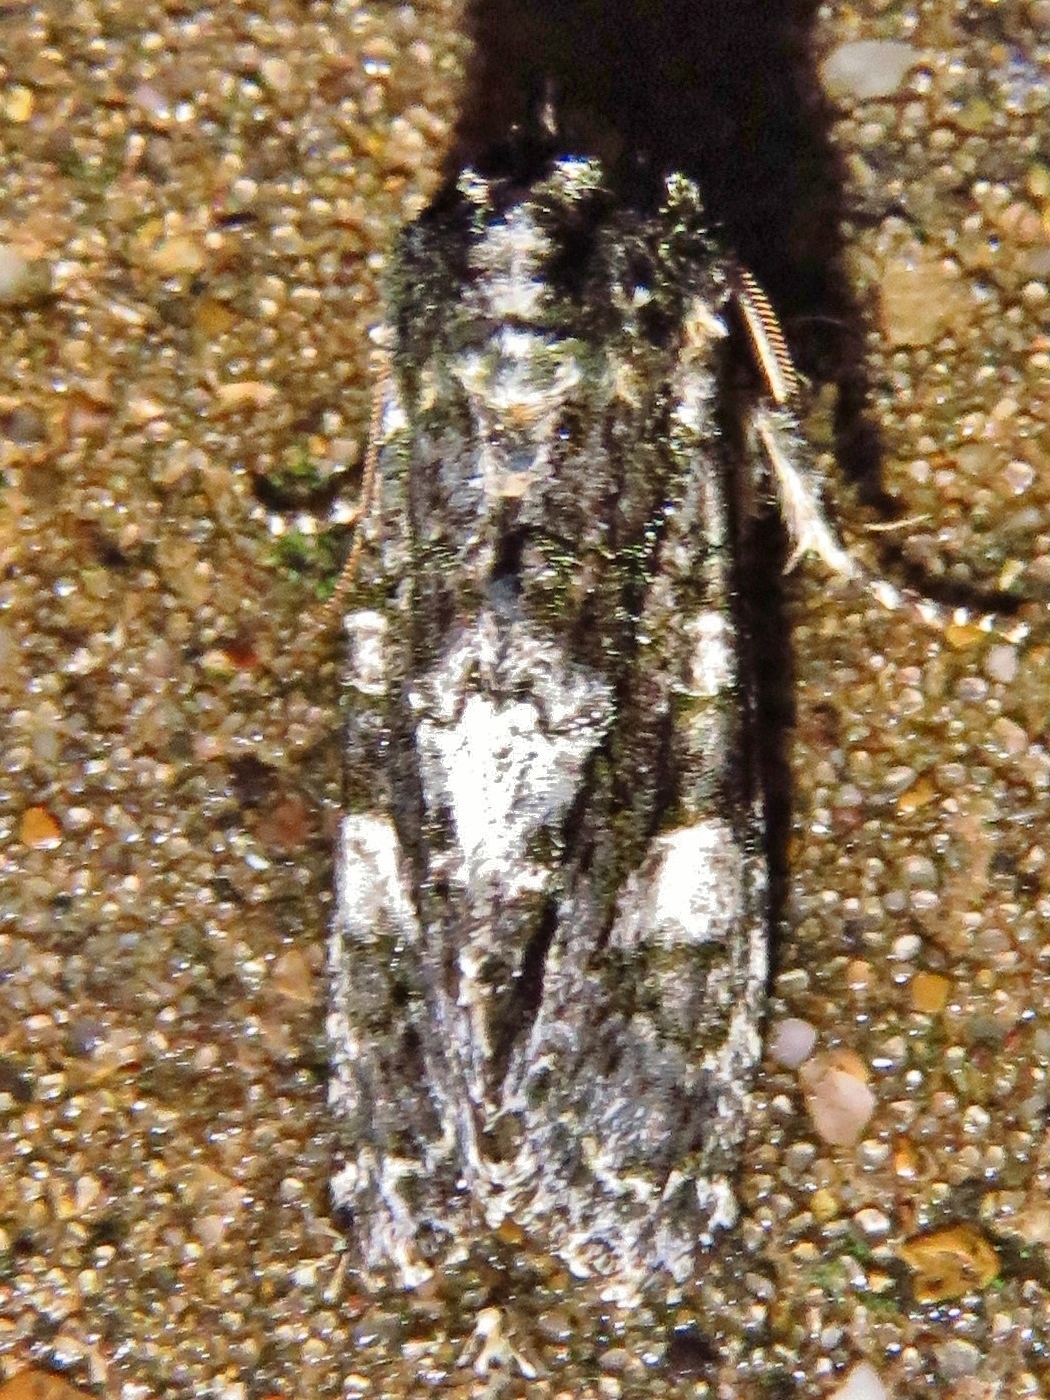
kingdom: Animalia
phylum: Arthropoda
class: Insecta
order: Lepidoptera
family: Noctuidae
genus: Psaphida
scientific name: Psaphida grotei
